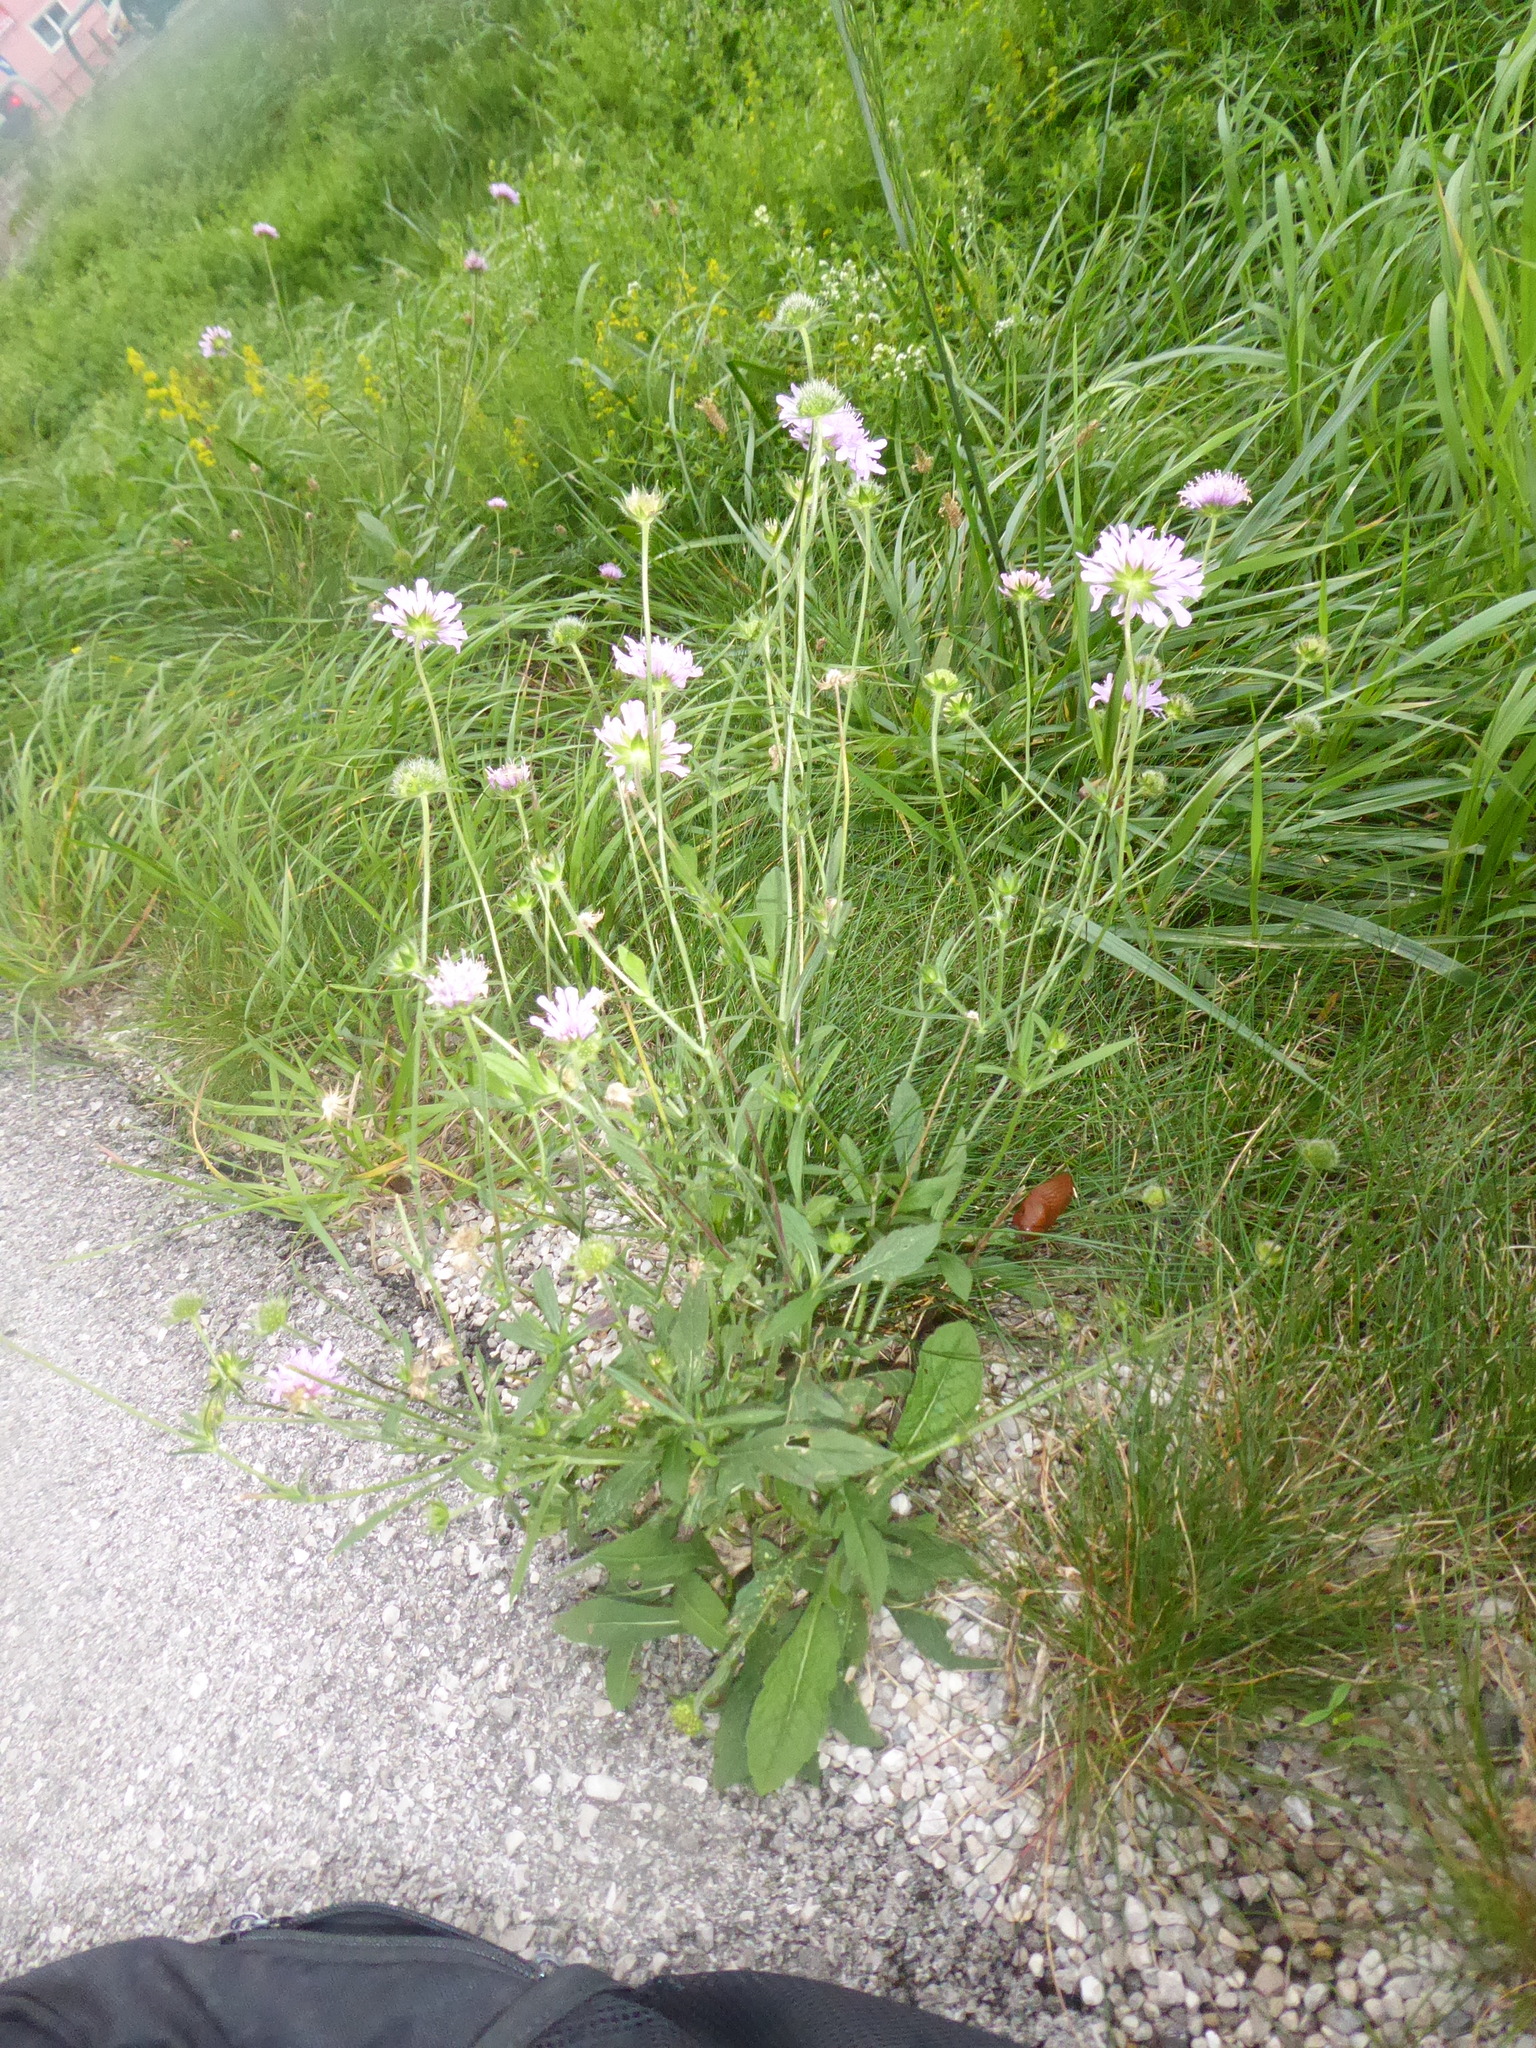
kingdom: Plantae
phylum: Tracheophyta
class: Magnoliopsida
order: Dipsacales
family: Caprifoliaceae
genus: Knautia
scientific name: Knautia arvensis
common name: Field scabiosa
